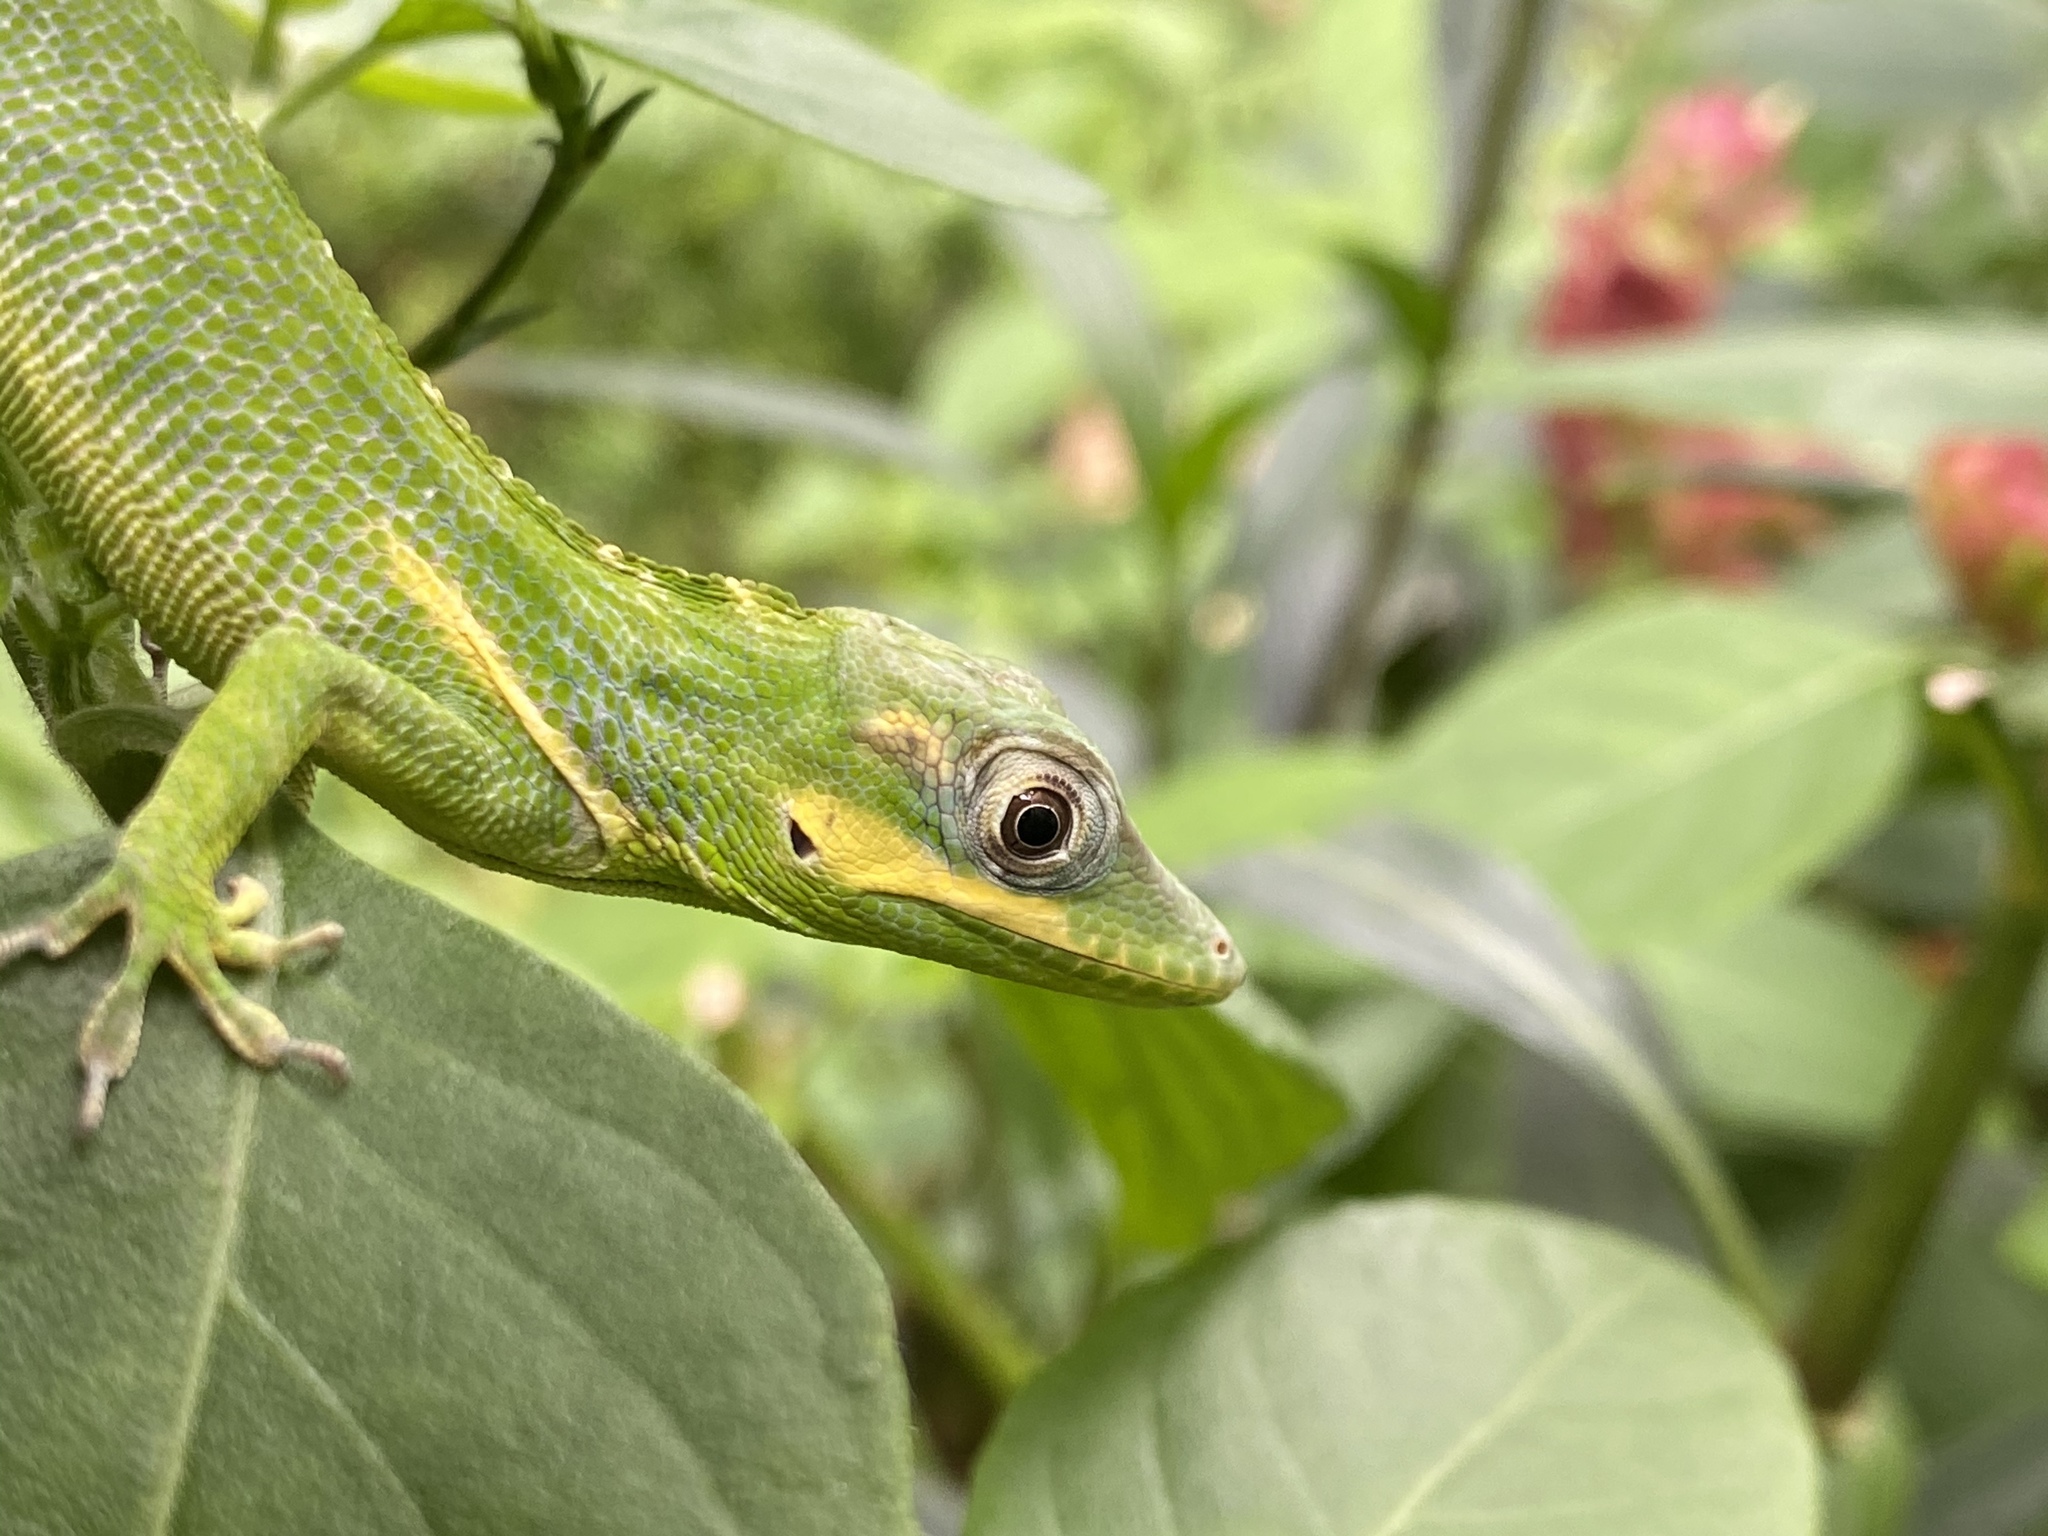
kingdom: Animalia
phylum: Chordata
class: Squamata
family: Dactyloidae
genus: Anolis
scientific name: Anolis equestris
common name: Knight anole
